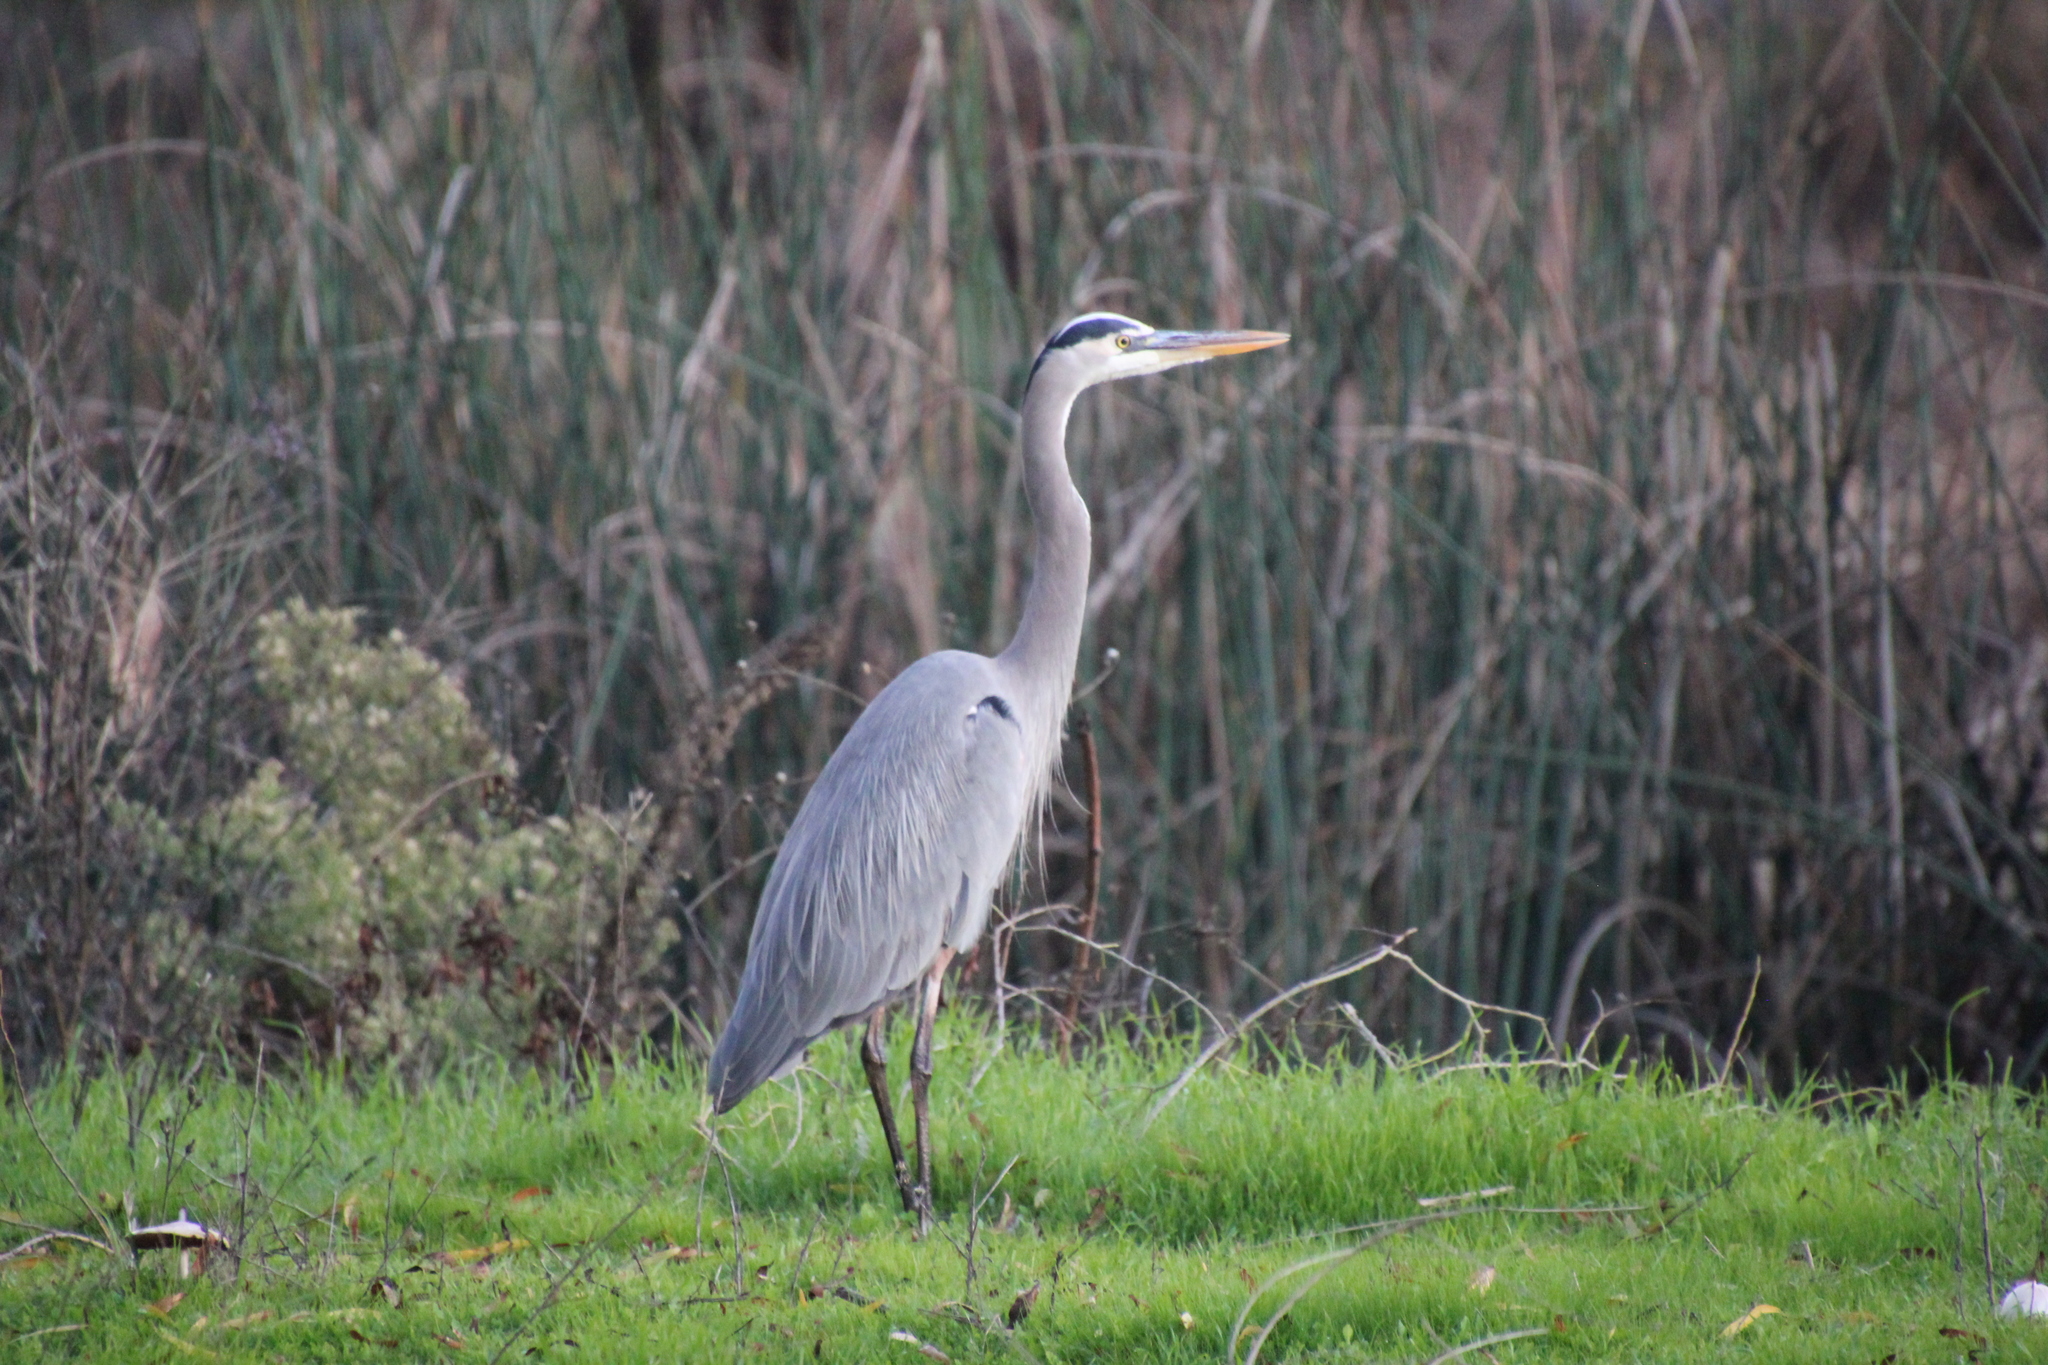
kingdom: Animalia
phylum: Chordata
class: Aves
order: Pelecaniformes
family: Ardeidae
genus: Ardea
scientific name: Ardea herodias
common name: Great blue heron
